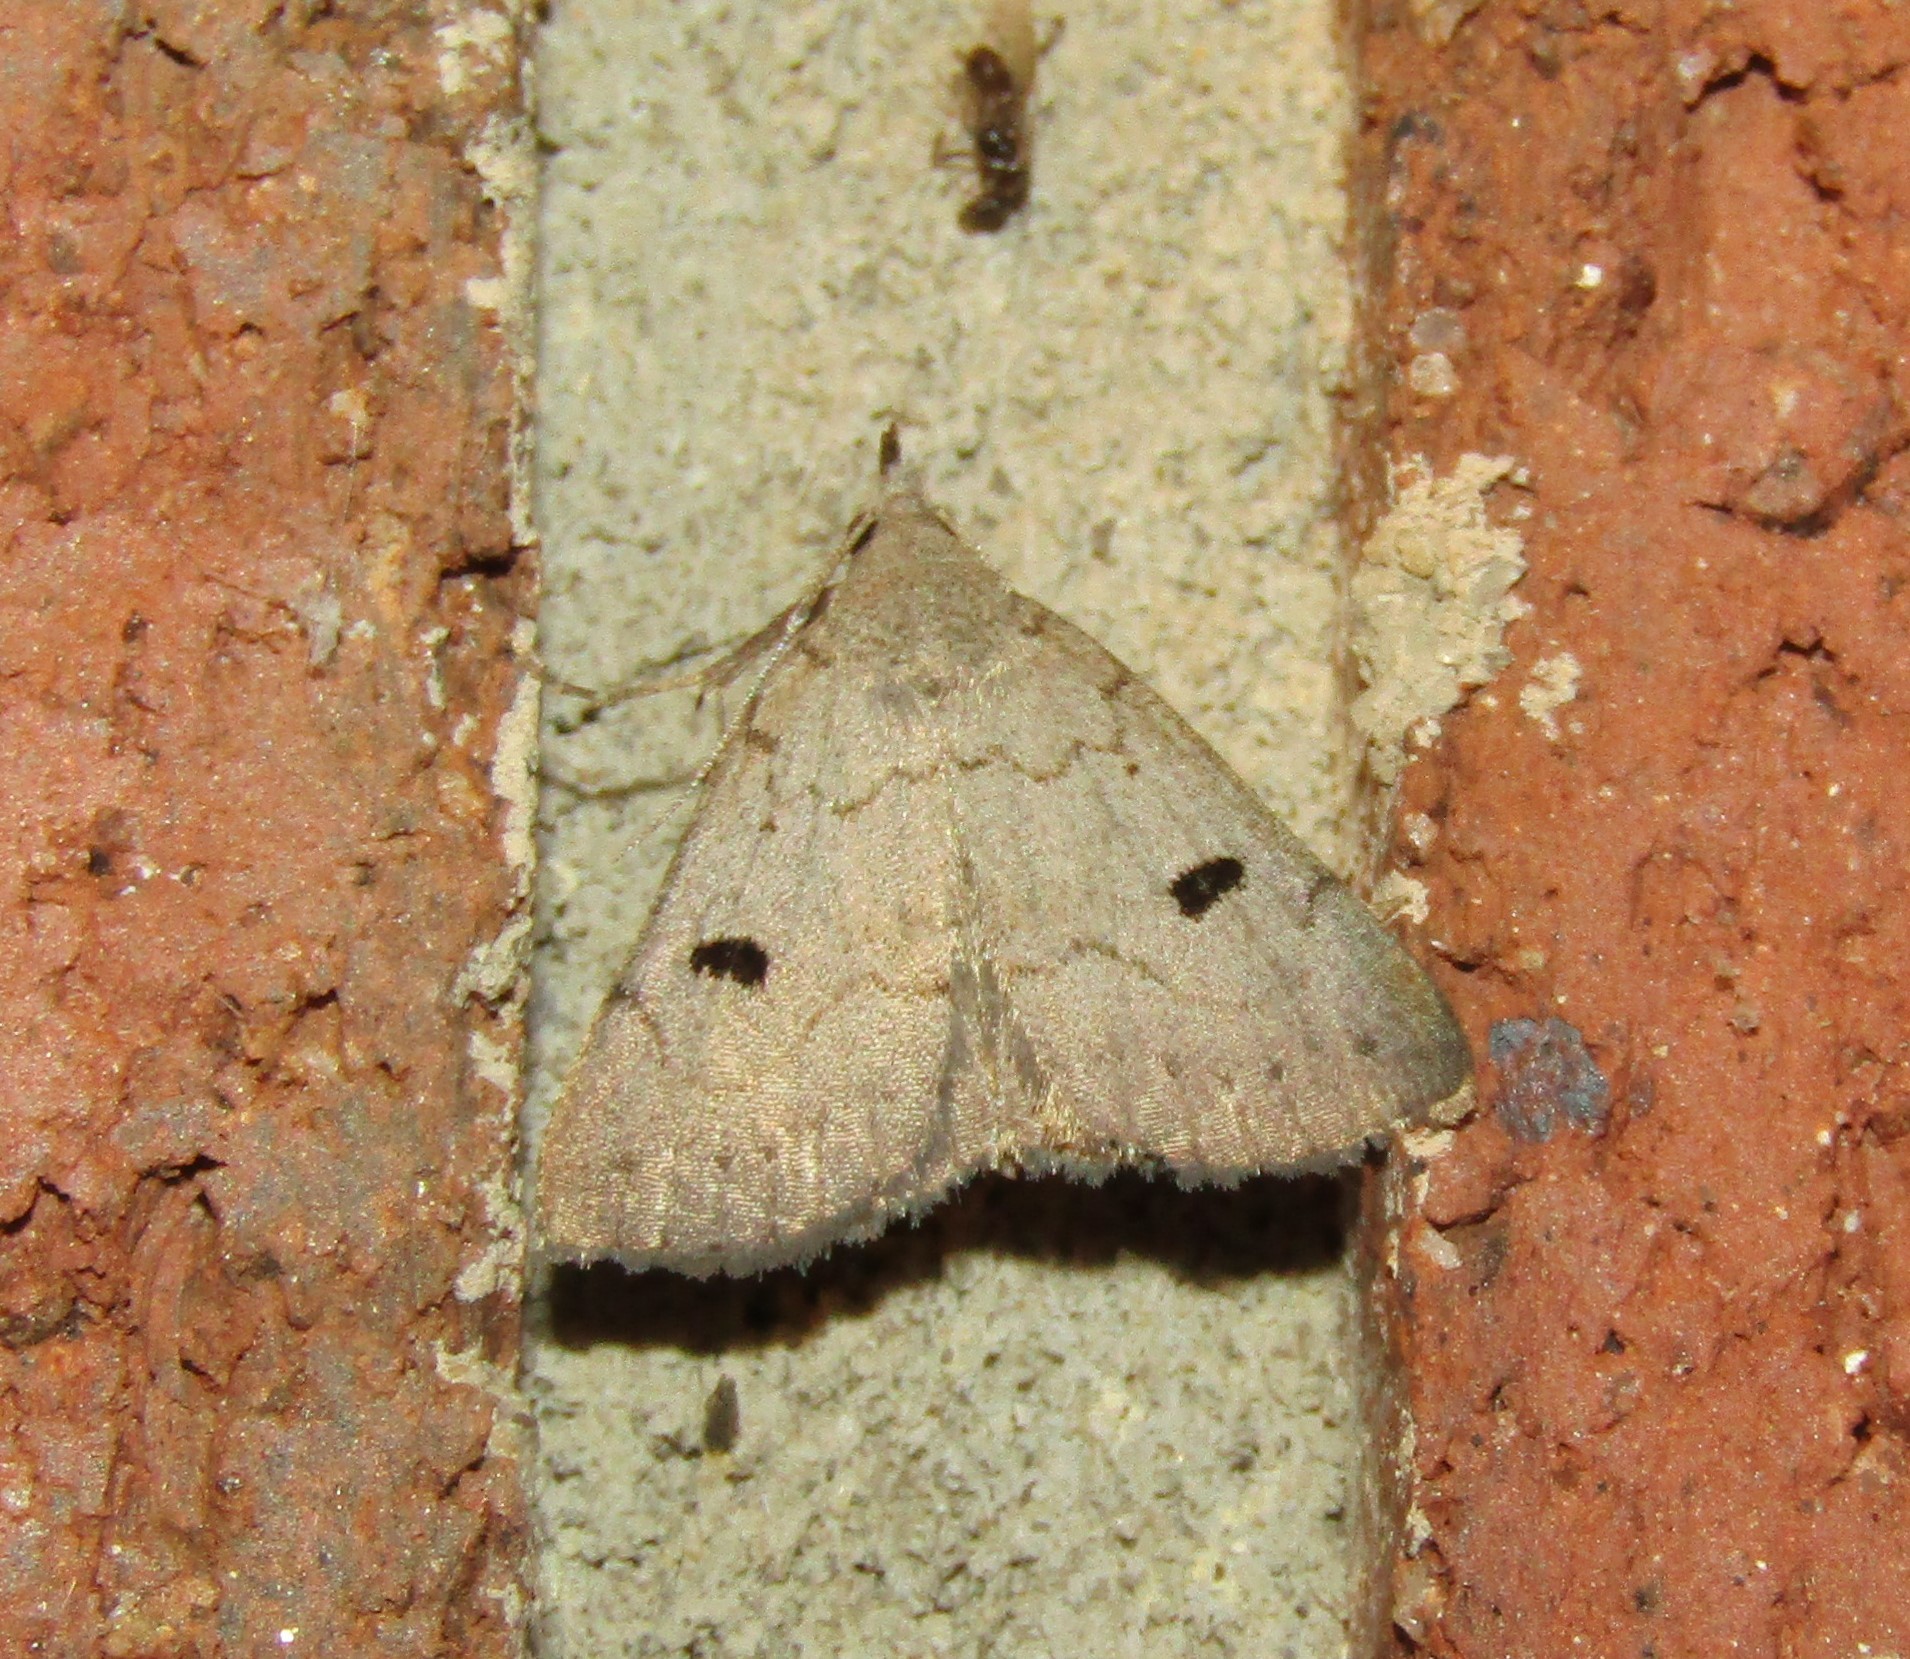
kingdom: Animalia
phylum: Arthropoda
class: Insecta
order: Lepidoptera
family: Erebidae
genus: Macrochilo
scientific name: Macrochilo morbidalis
